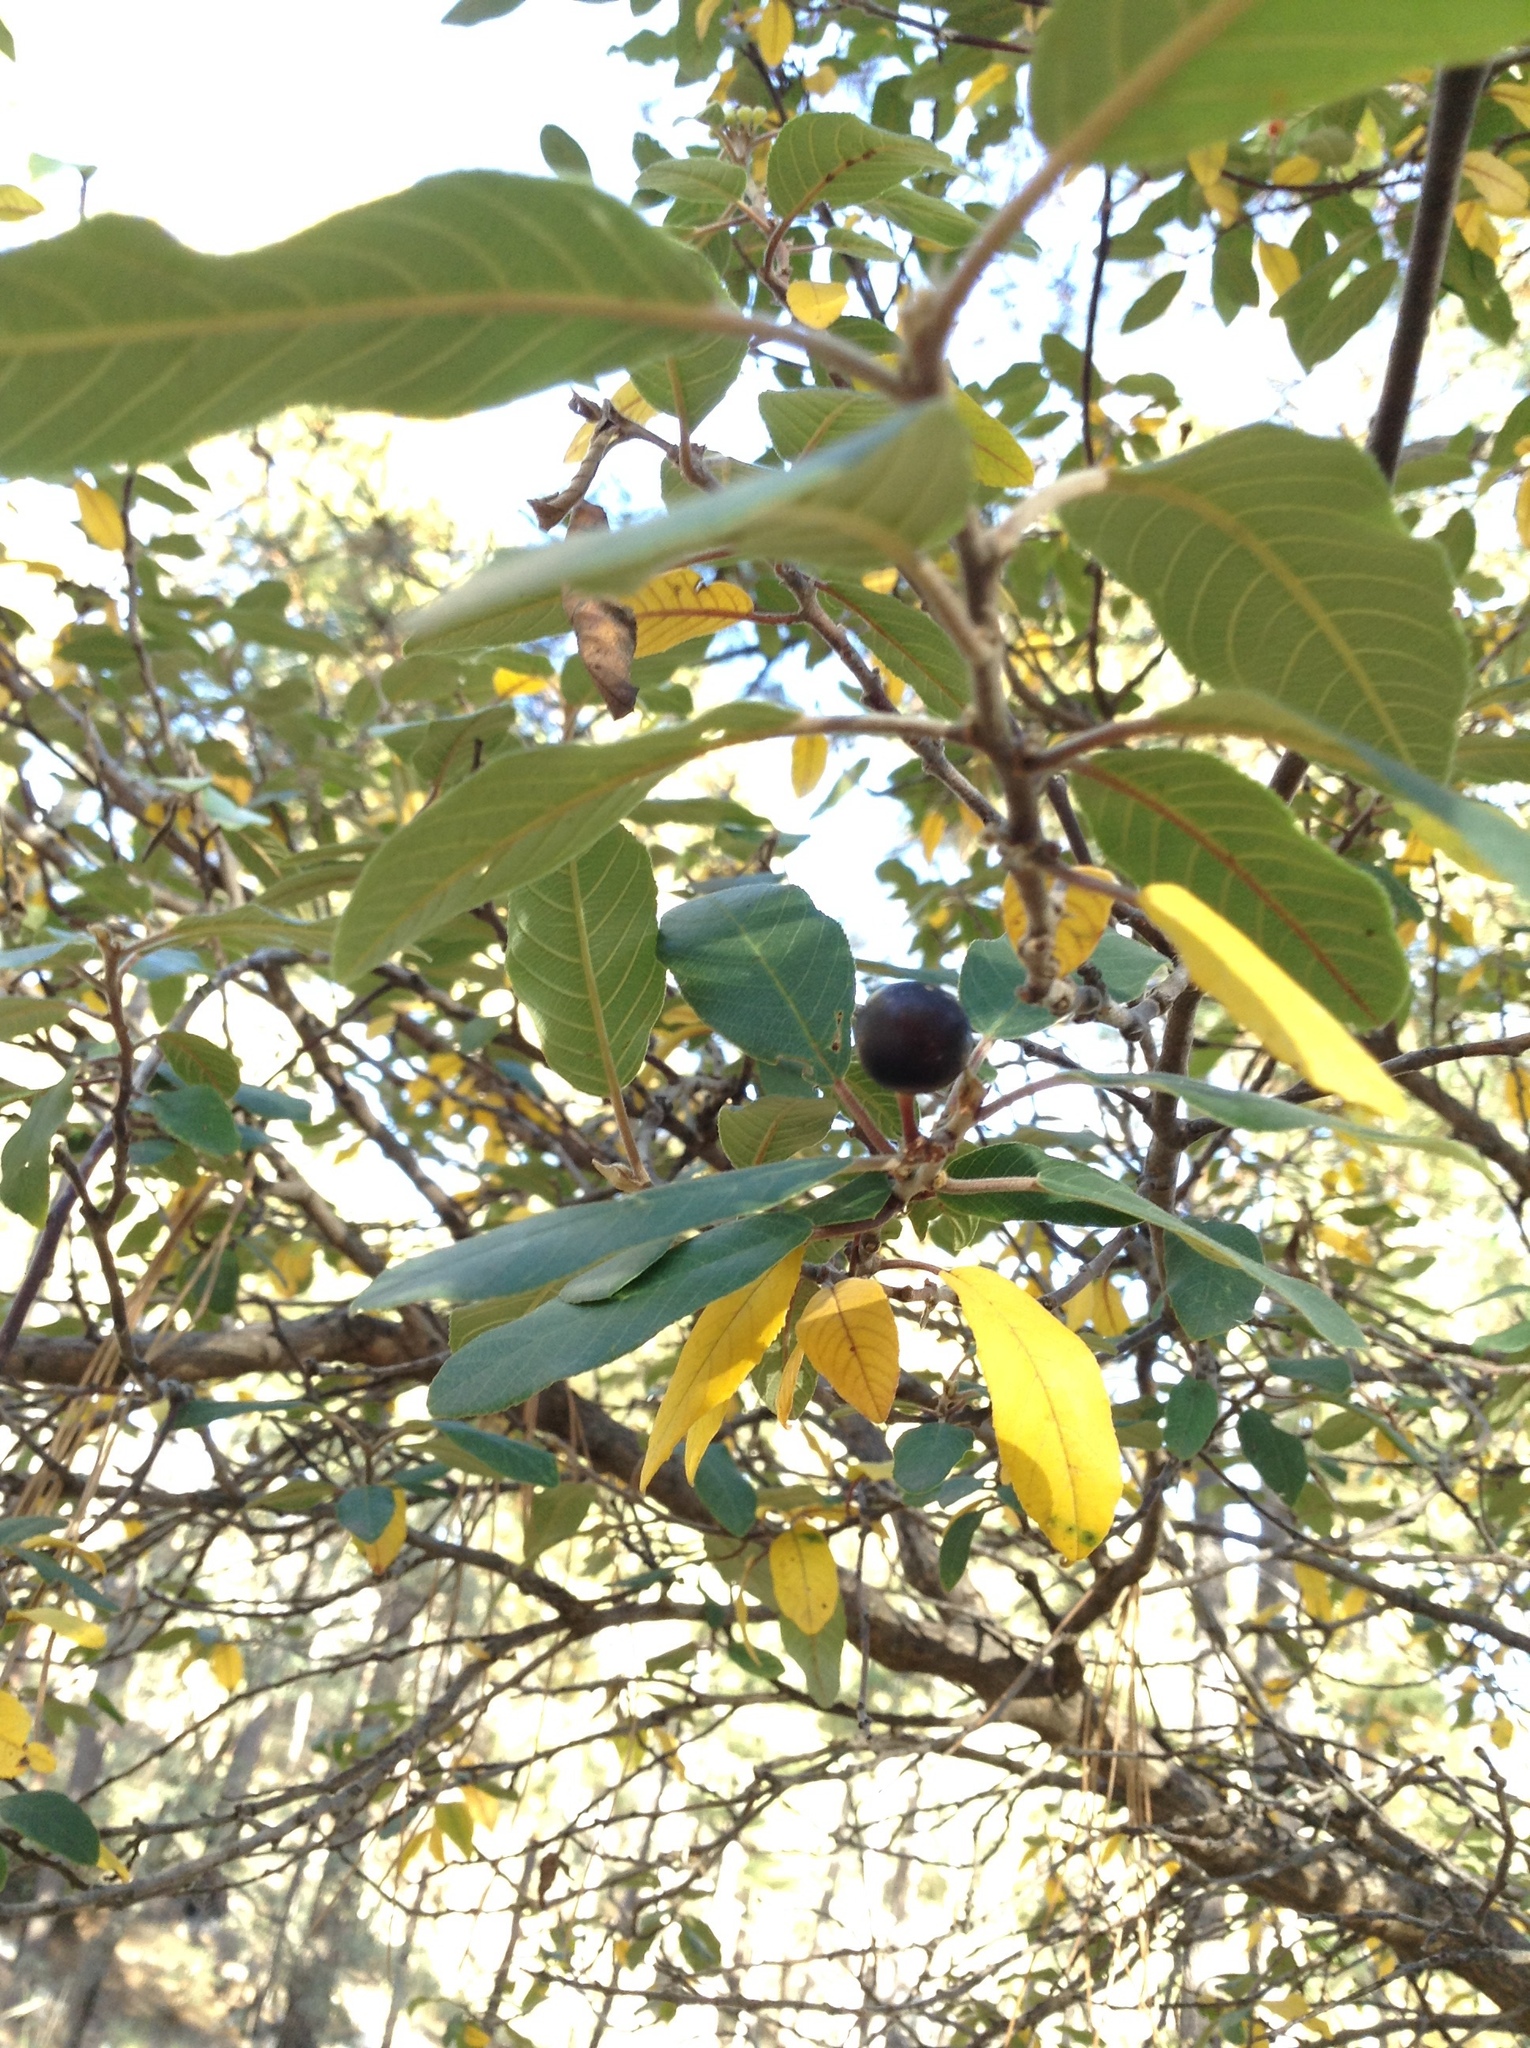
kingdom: Plantae
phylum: Tracheophyta
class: Magnoliopsida
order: Rosales
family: Rhamnaceae
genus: Frangula
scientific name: Frangula californica
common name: California buckthorn
